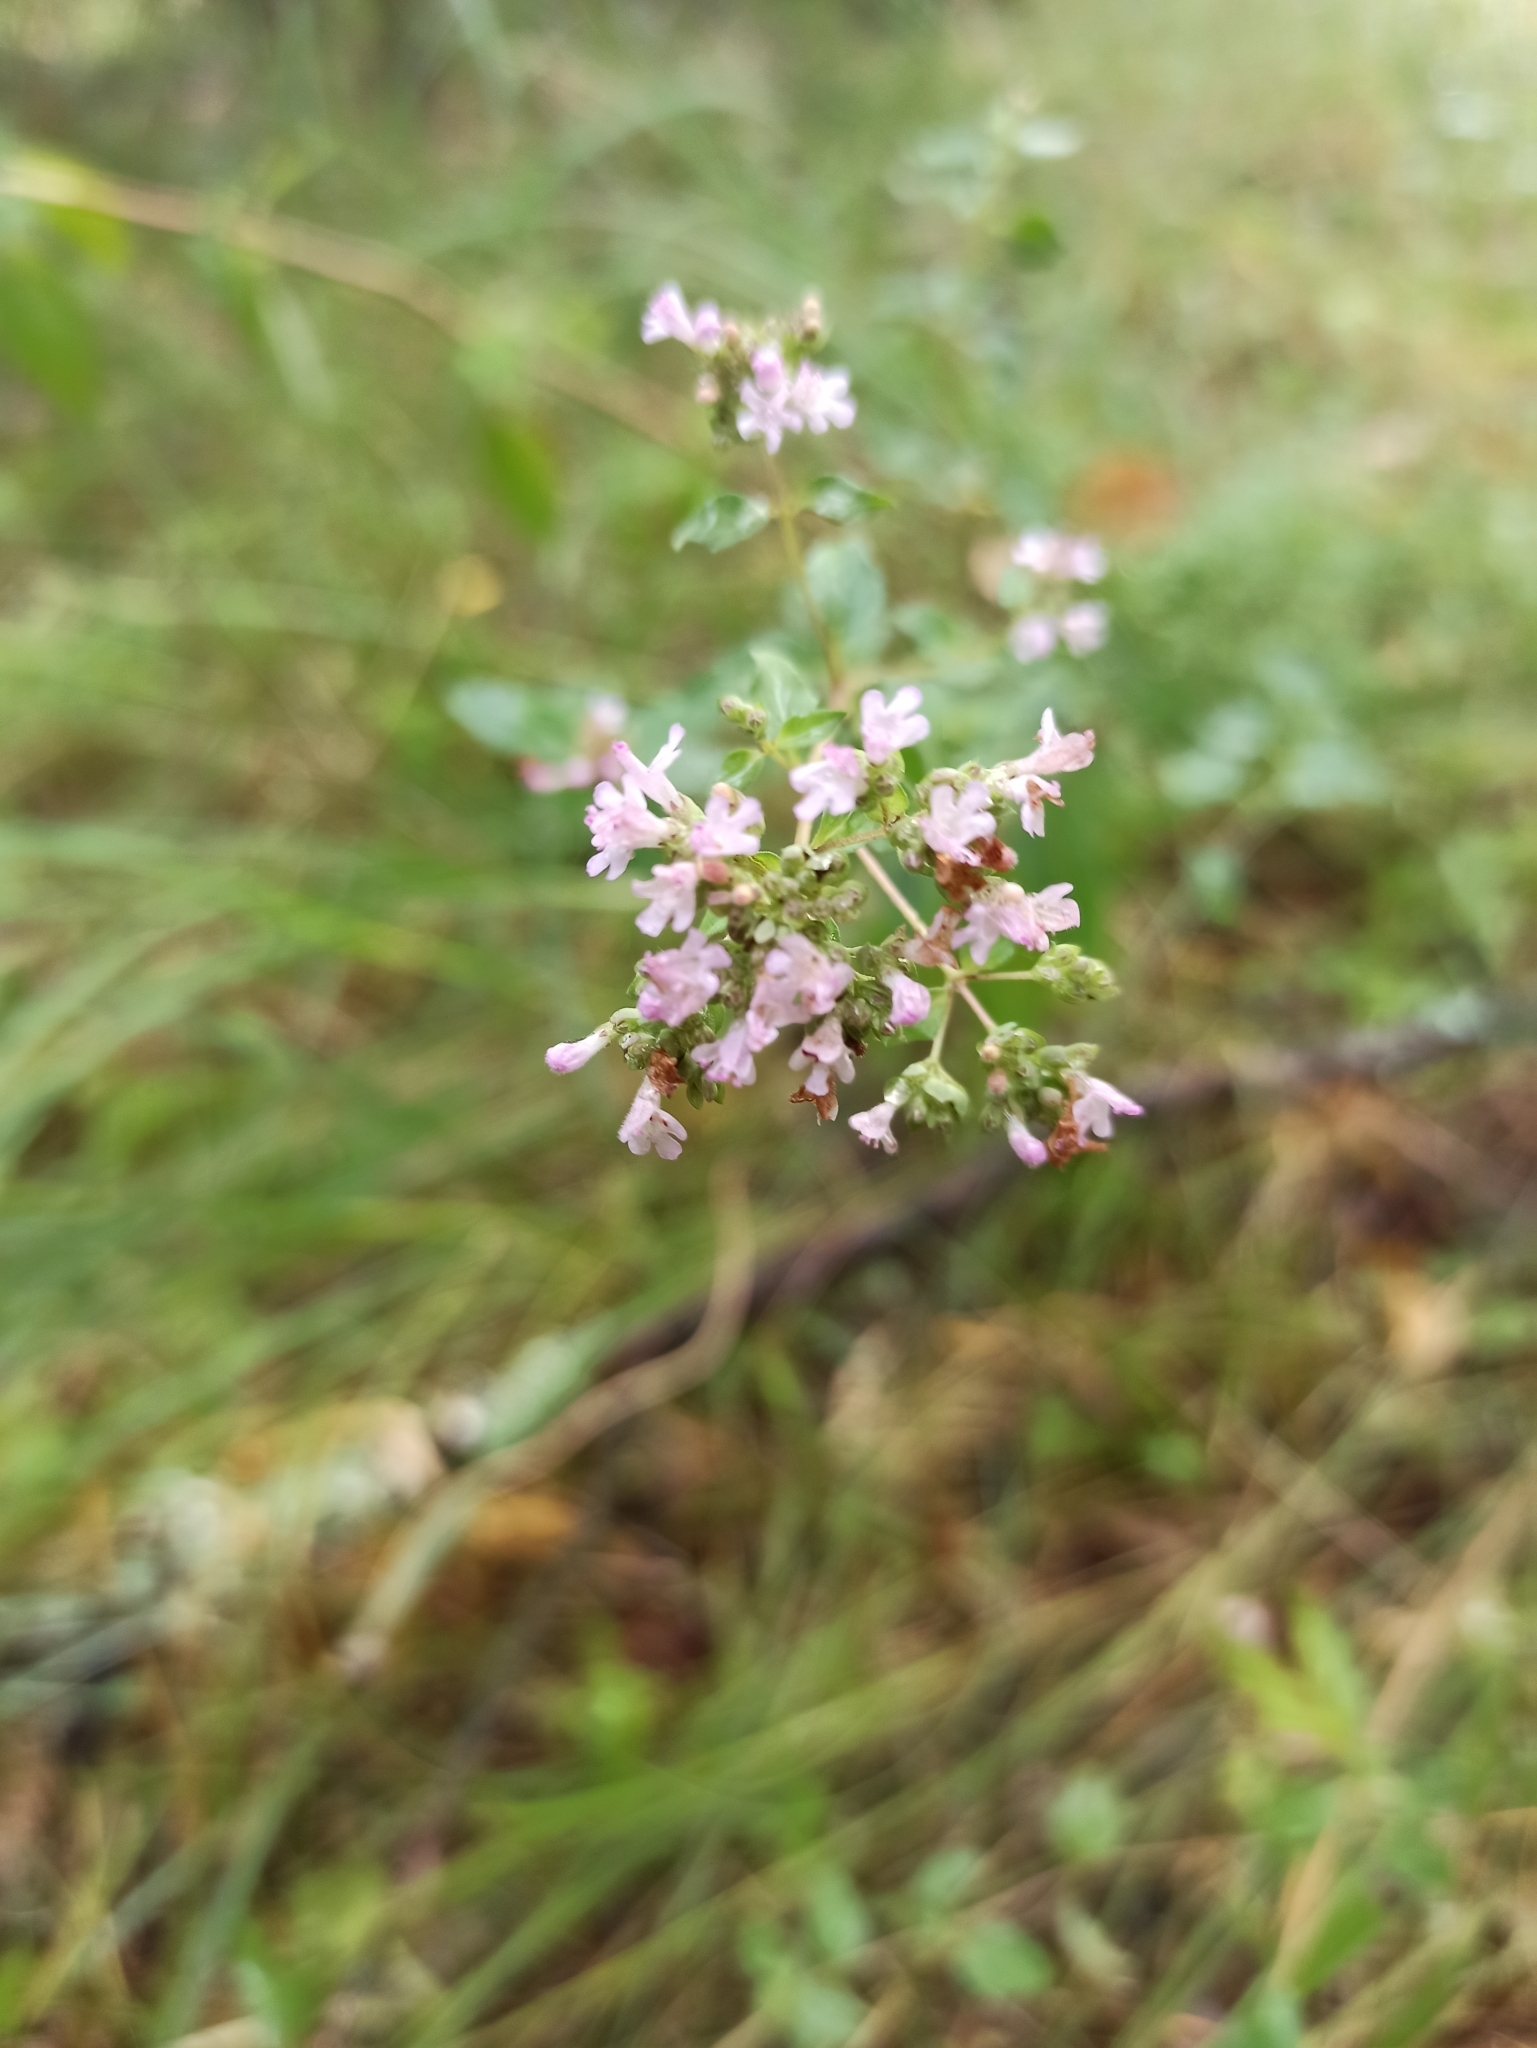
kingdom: Plantae
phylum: Tracheophyta
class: Magnoliopsida
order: Lamiales
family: Lamiaceae
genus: Origanum
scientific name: Origanum vulgare
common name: Wild marjoram
